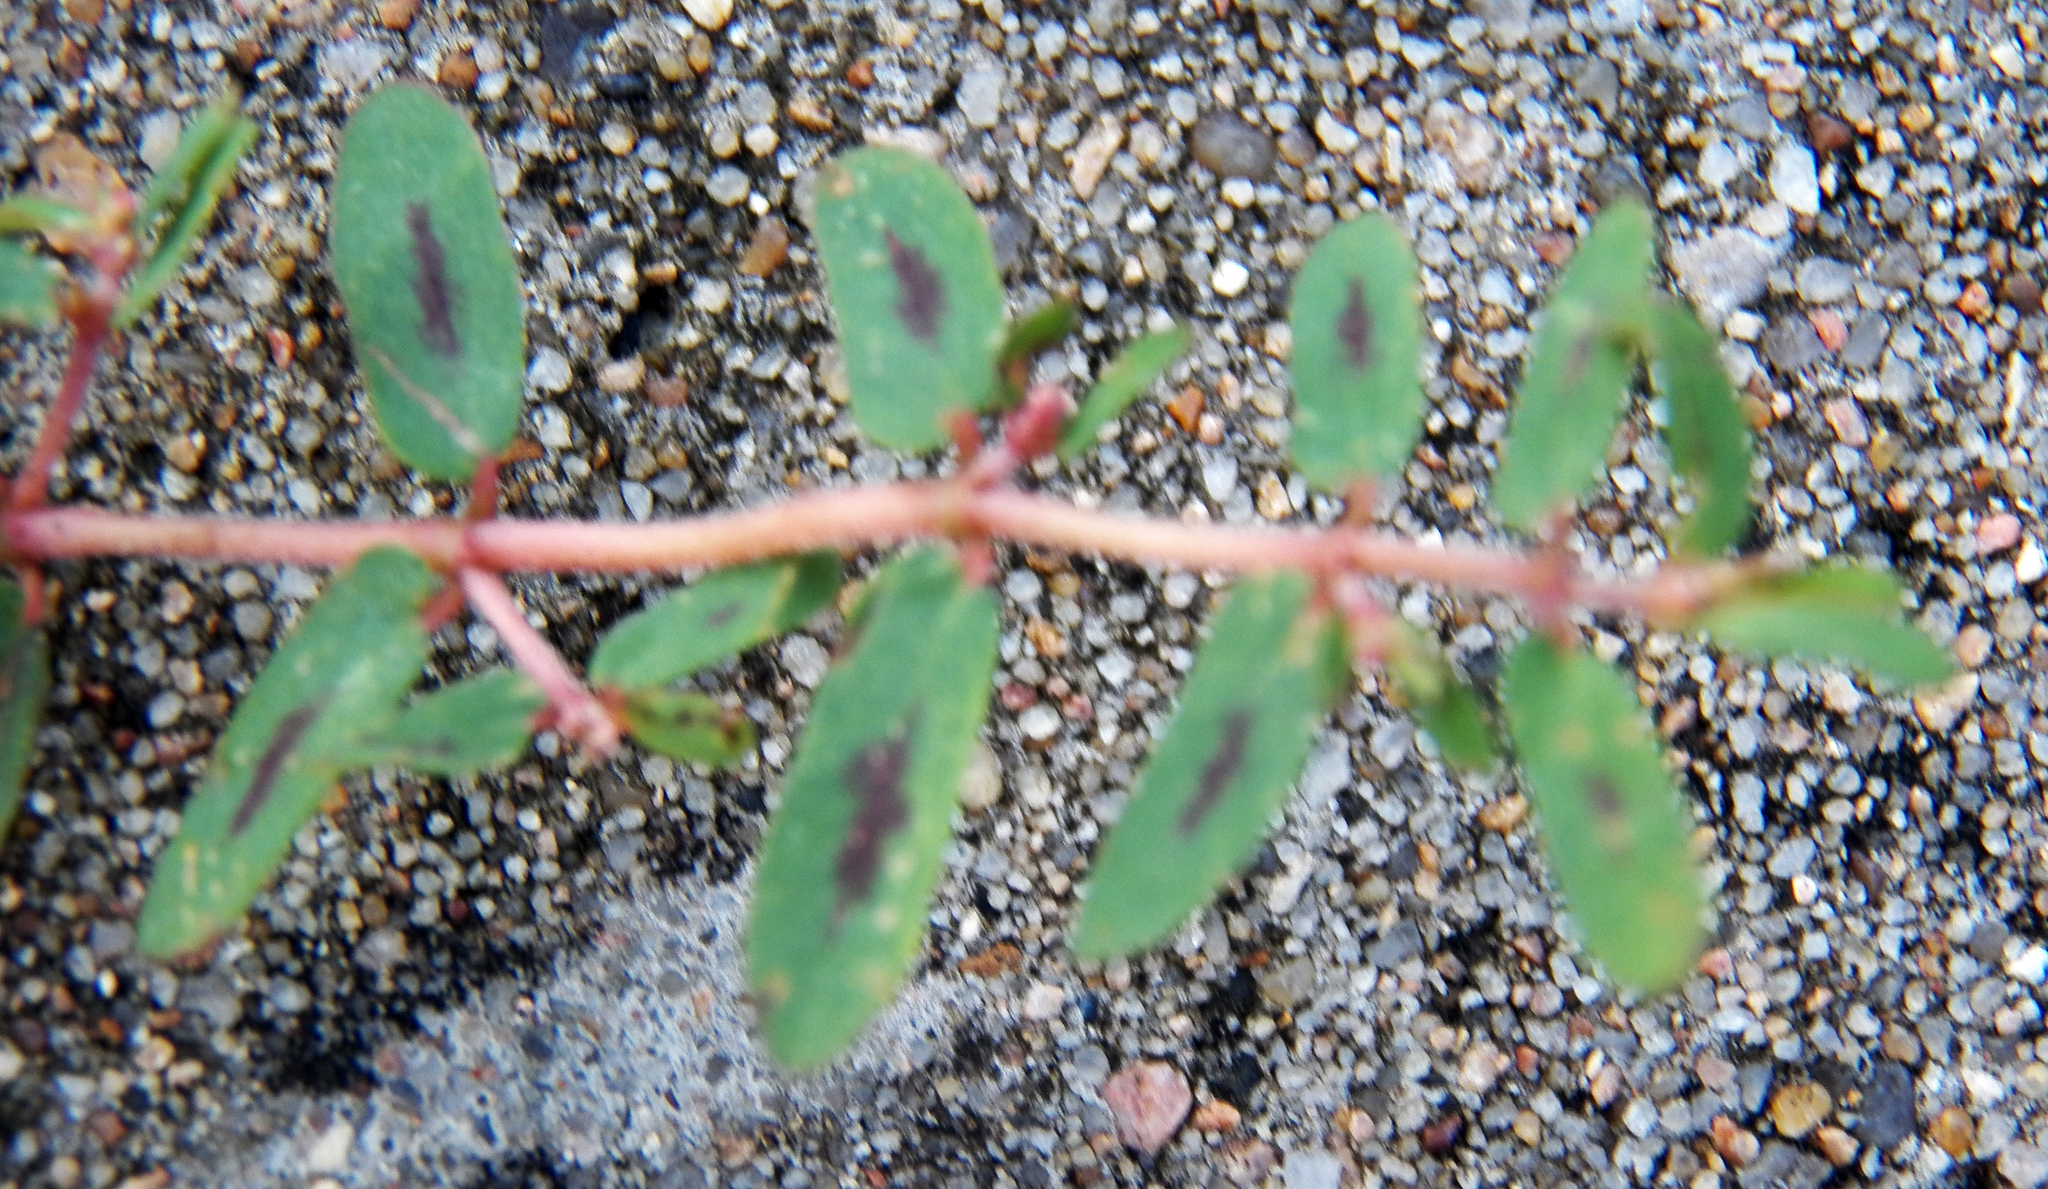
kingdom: Plantae
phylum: Tracheophyta
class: Magnoliopsida
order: Malpighiales
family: Euphorbiaceae
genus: Euphorbia
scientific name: Euphorbia maculata
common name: Spotted spurge
